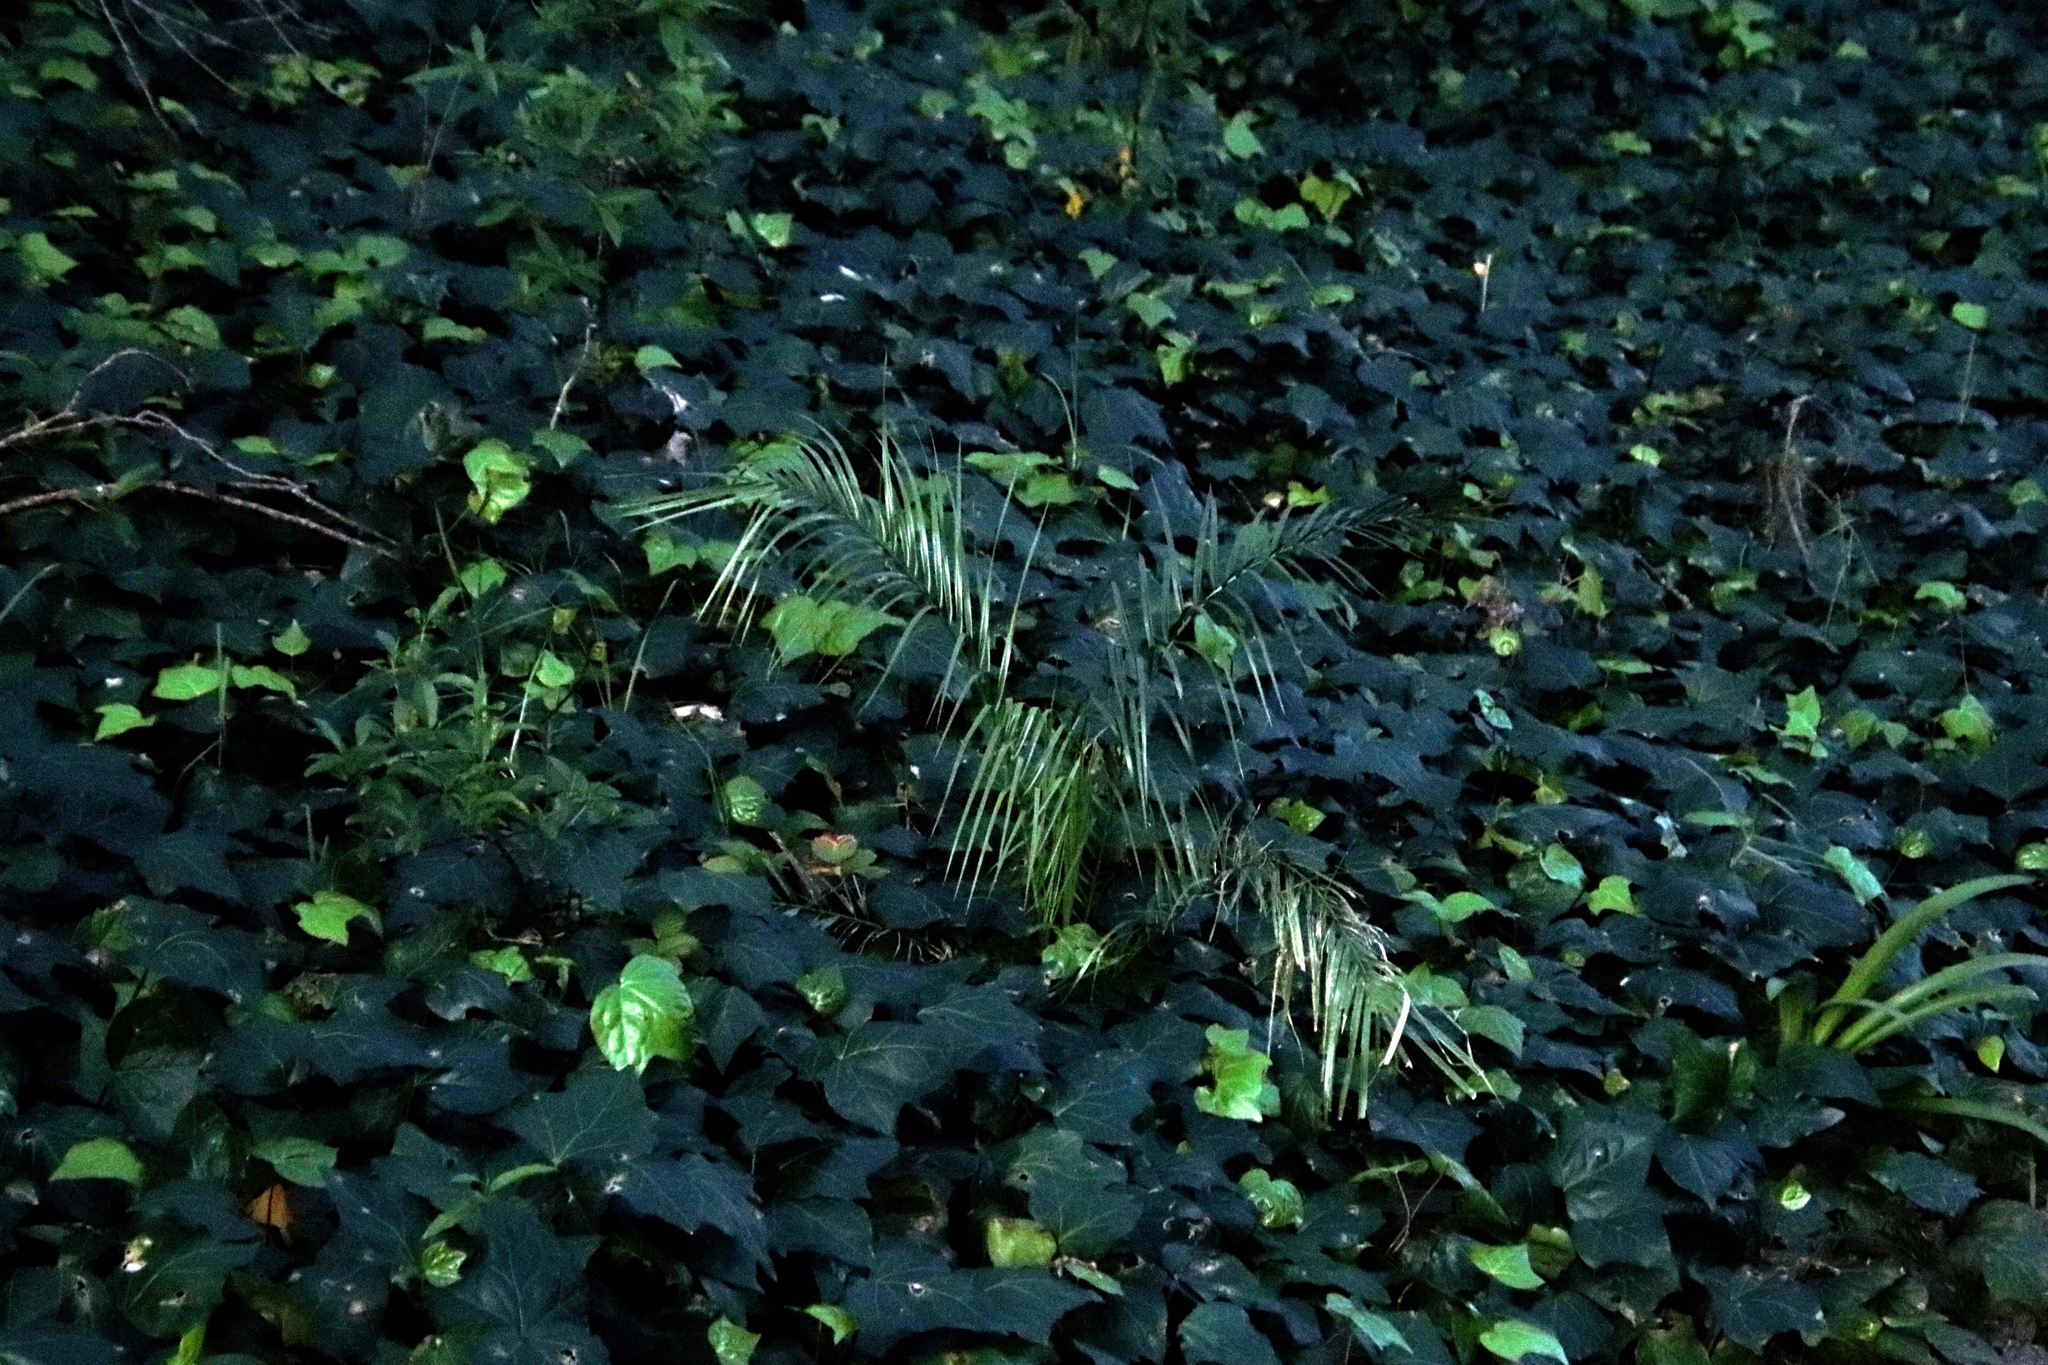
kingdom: Plantae
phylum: Tracheophyta
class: Liliopsida
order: Arecales
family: Arecaceae
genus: Phoenix
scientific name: Phoenix canariensis
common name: Canary island date palm
